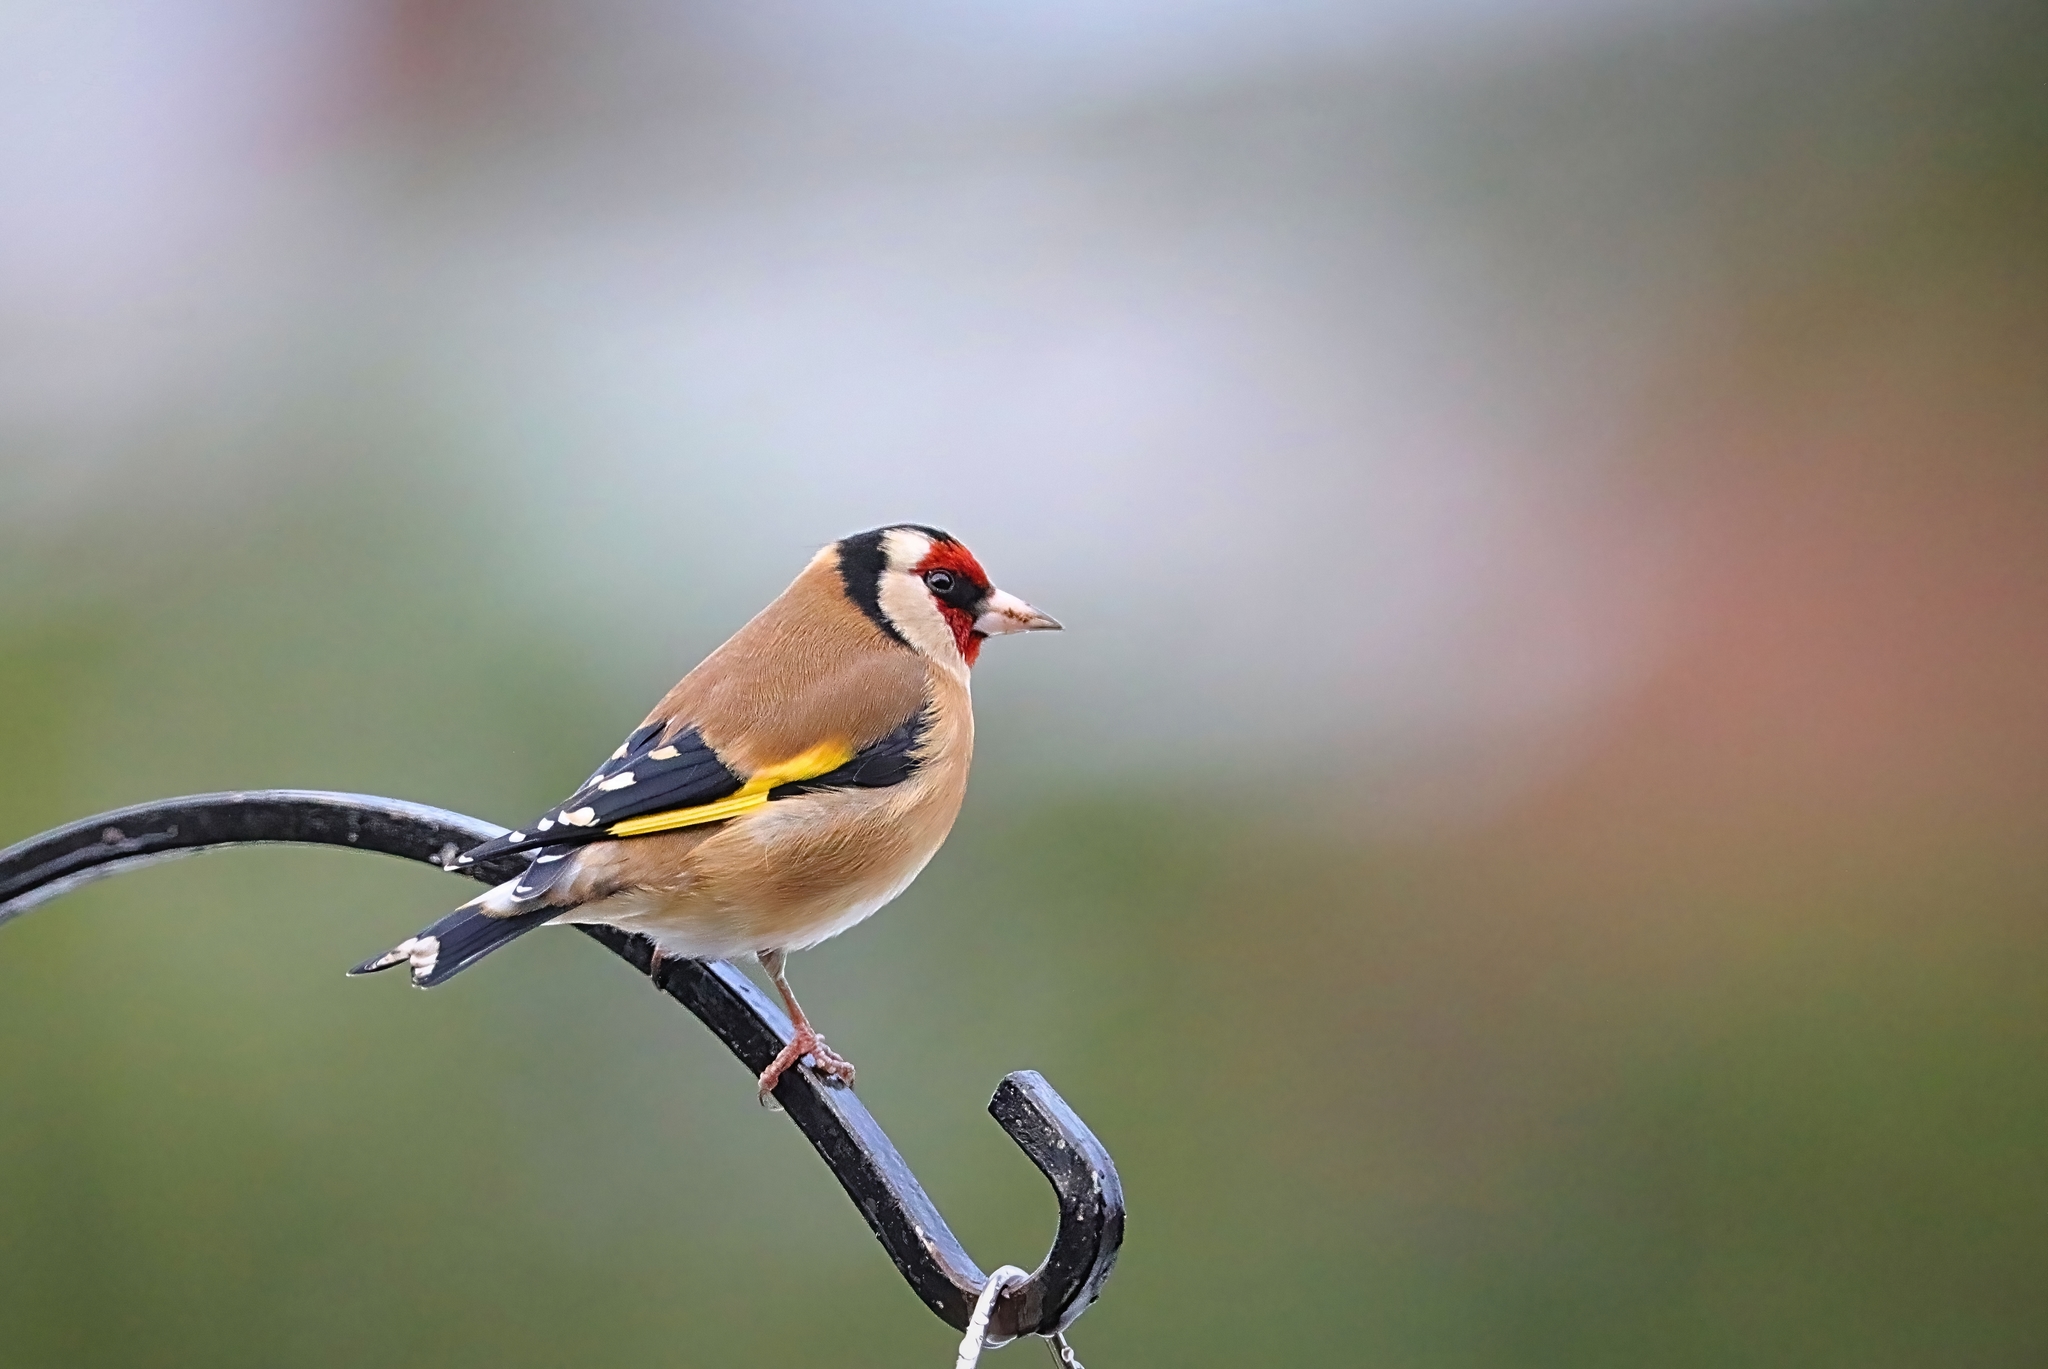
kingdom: Animalia
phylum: Chordata
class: Aves
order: Passeriformes
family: Fringillidae
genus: Carduelis
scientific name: Carduelis carduelis
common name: European goldfinch
